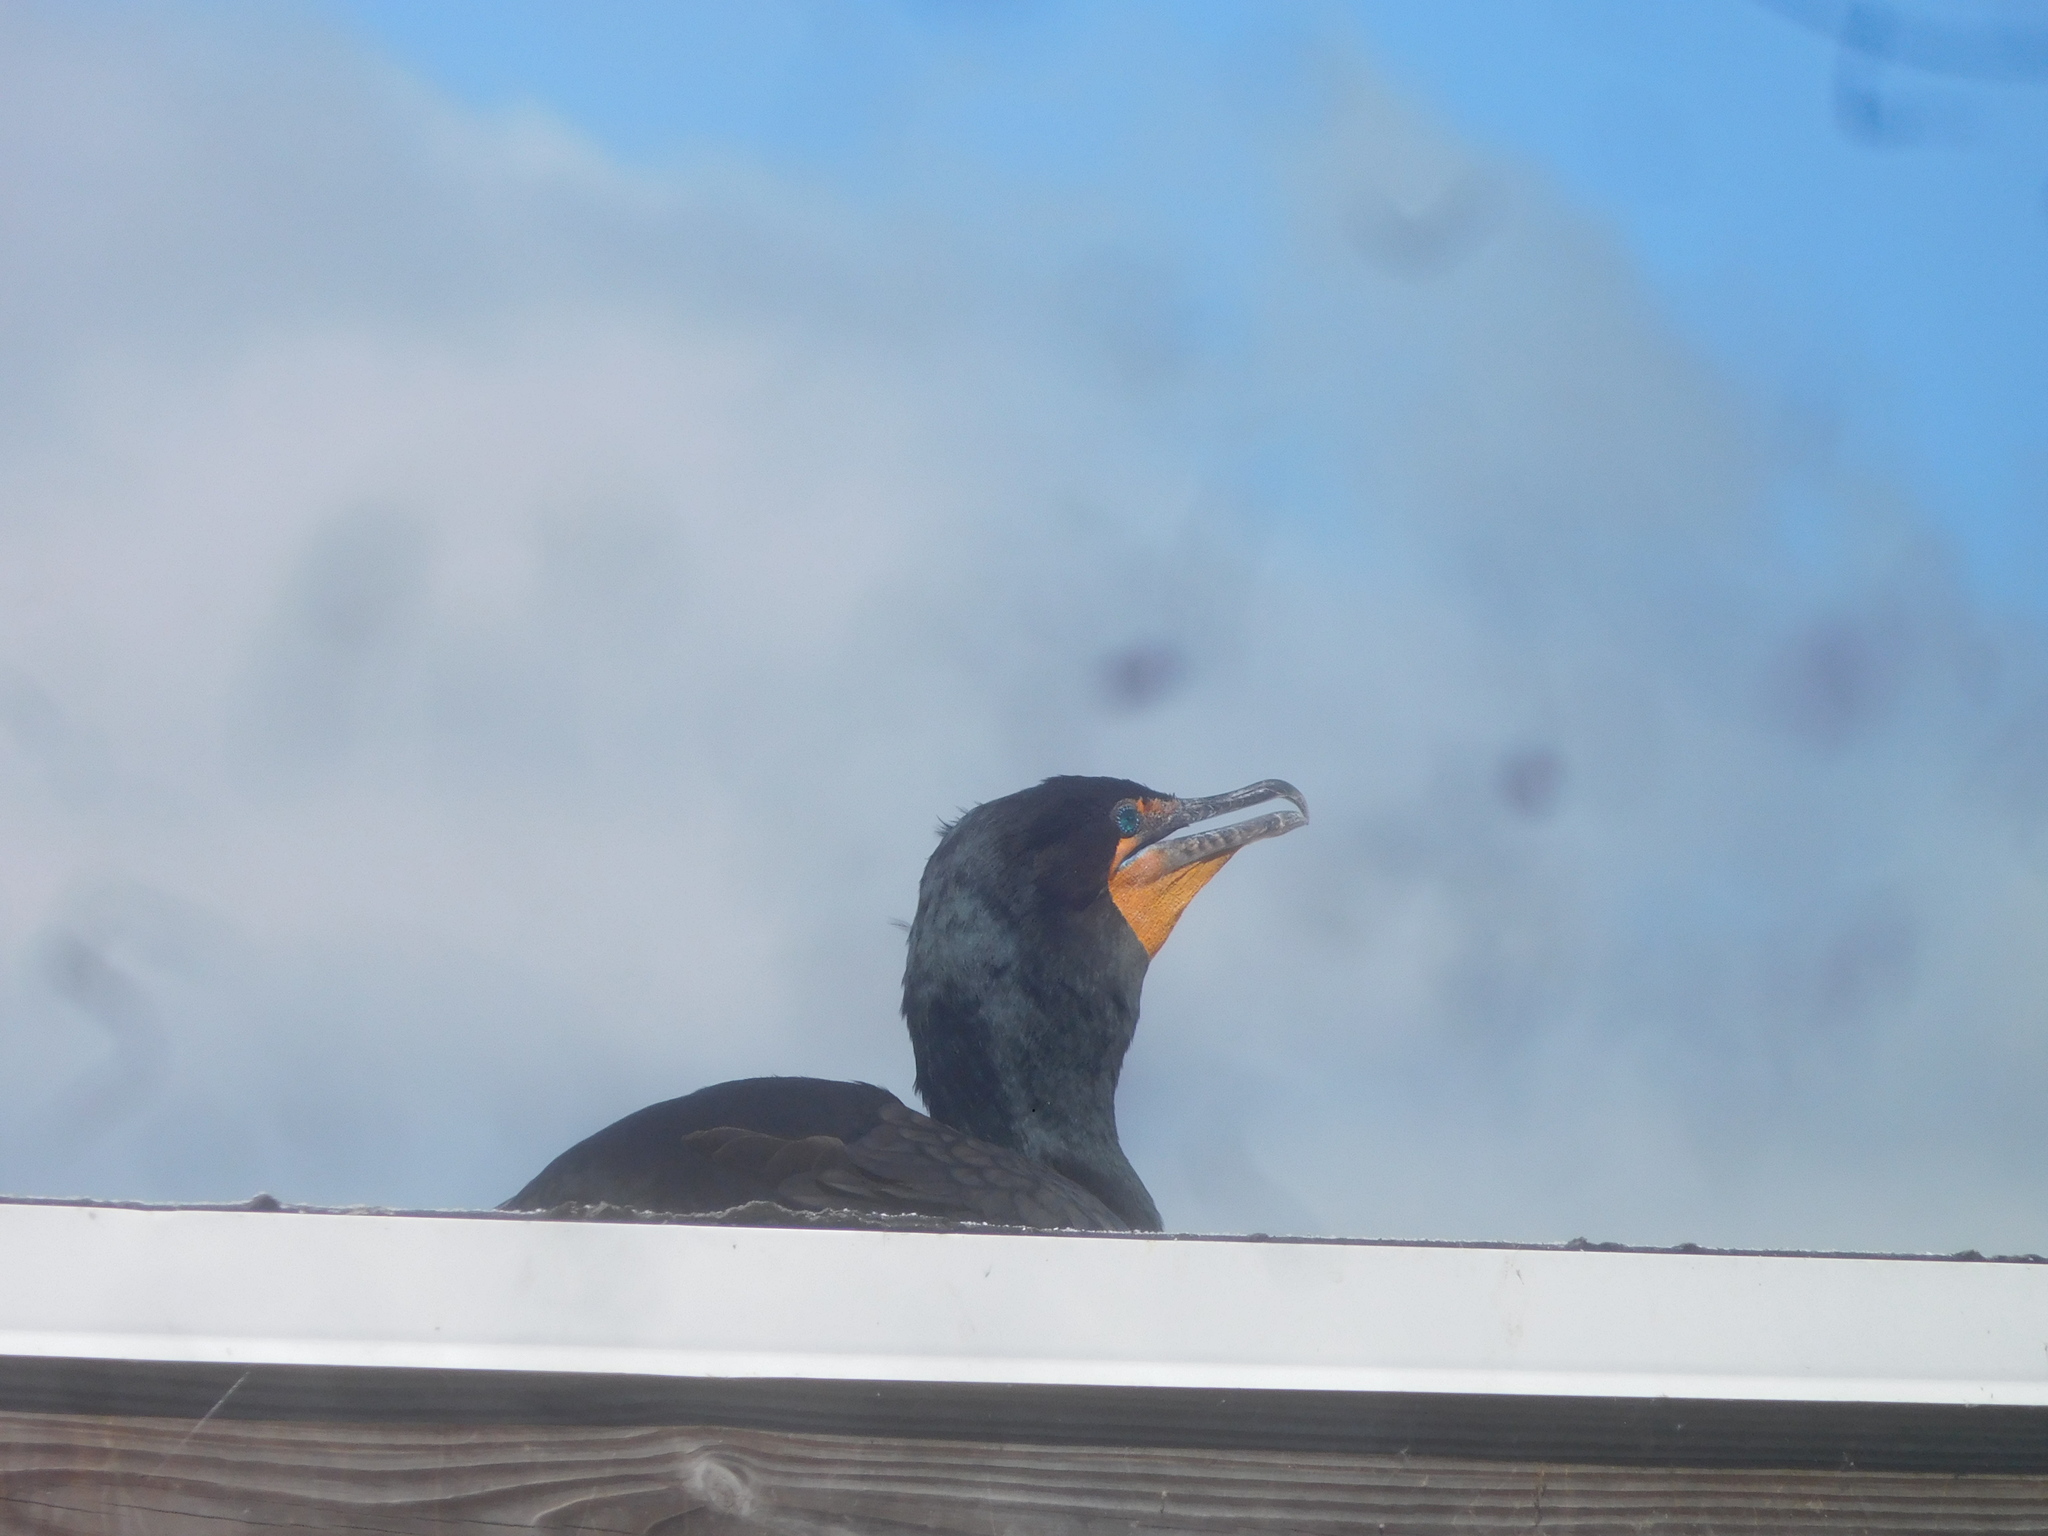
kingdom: Animalia
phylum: Chordata
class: Aves
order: Suliformes
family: Phalacrocoracidae
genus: Phalacrocorax
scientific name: Phalacrocorax auritus
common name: Double-crested cormorant
